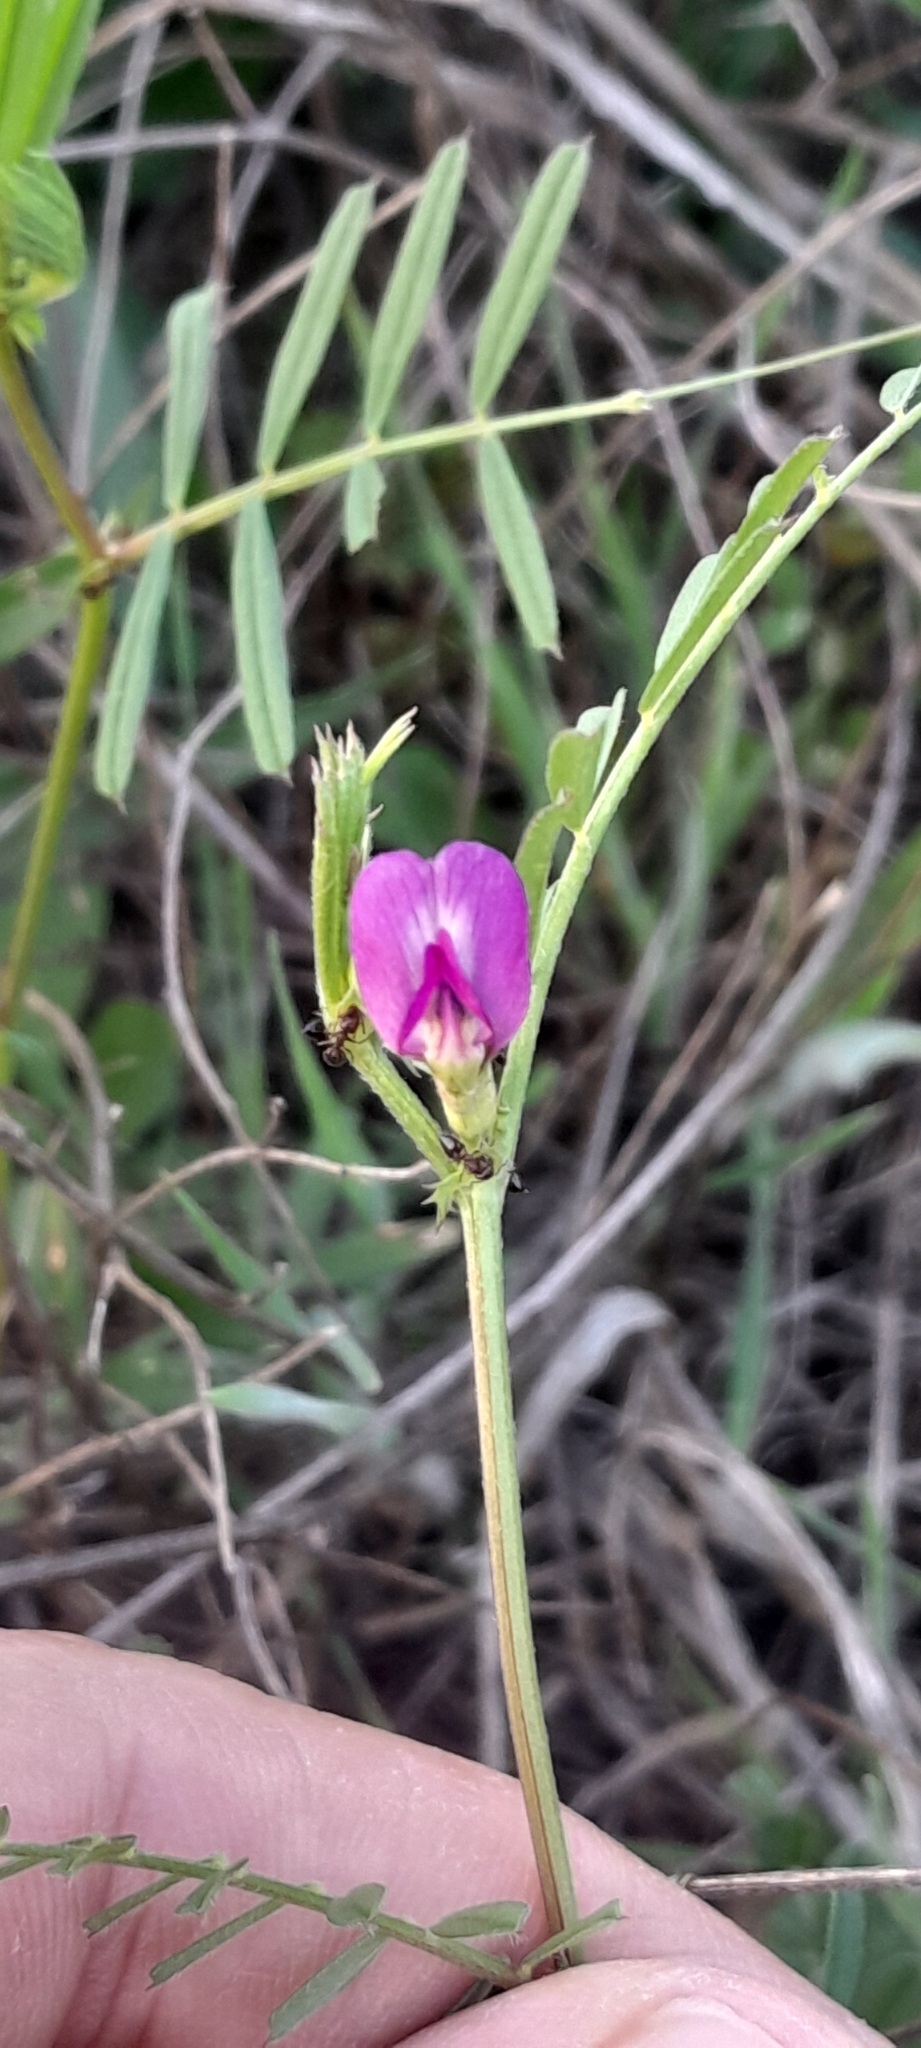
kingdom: Plantae
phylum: Tracheophyta
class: Magnoliopsida
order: Fabales
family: Fabaceae
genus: Vicia
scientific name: Vicia sativa
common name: Garden vetch
